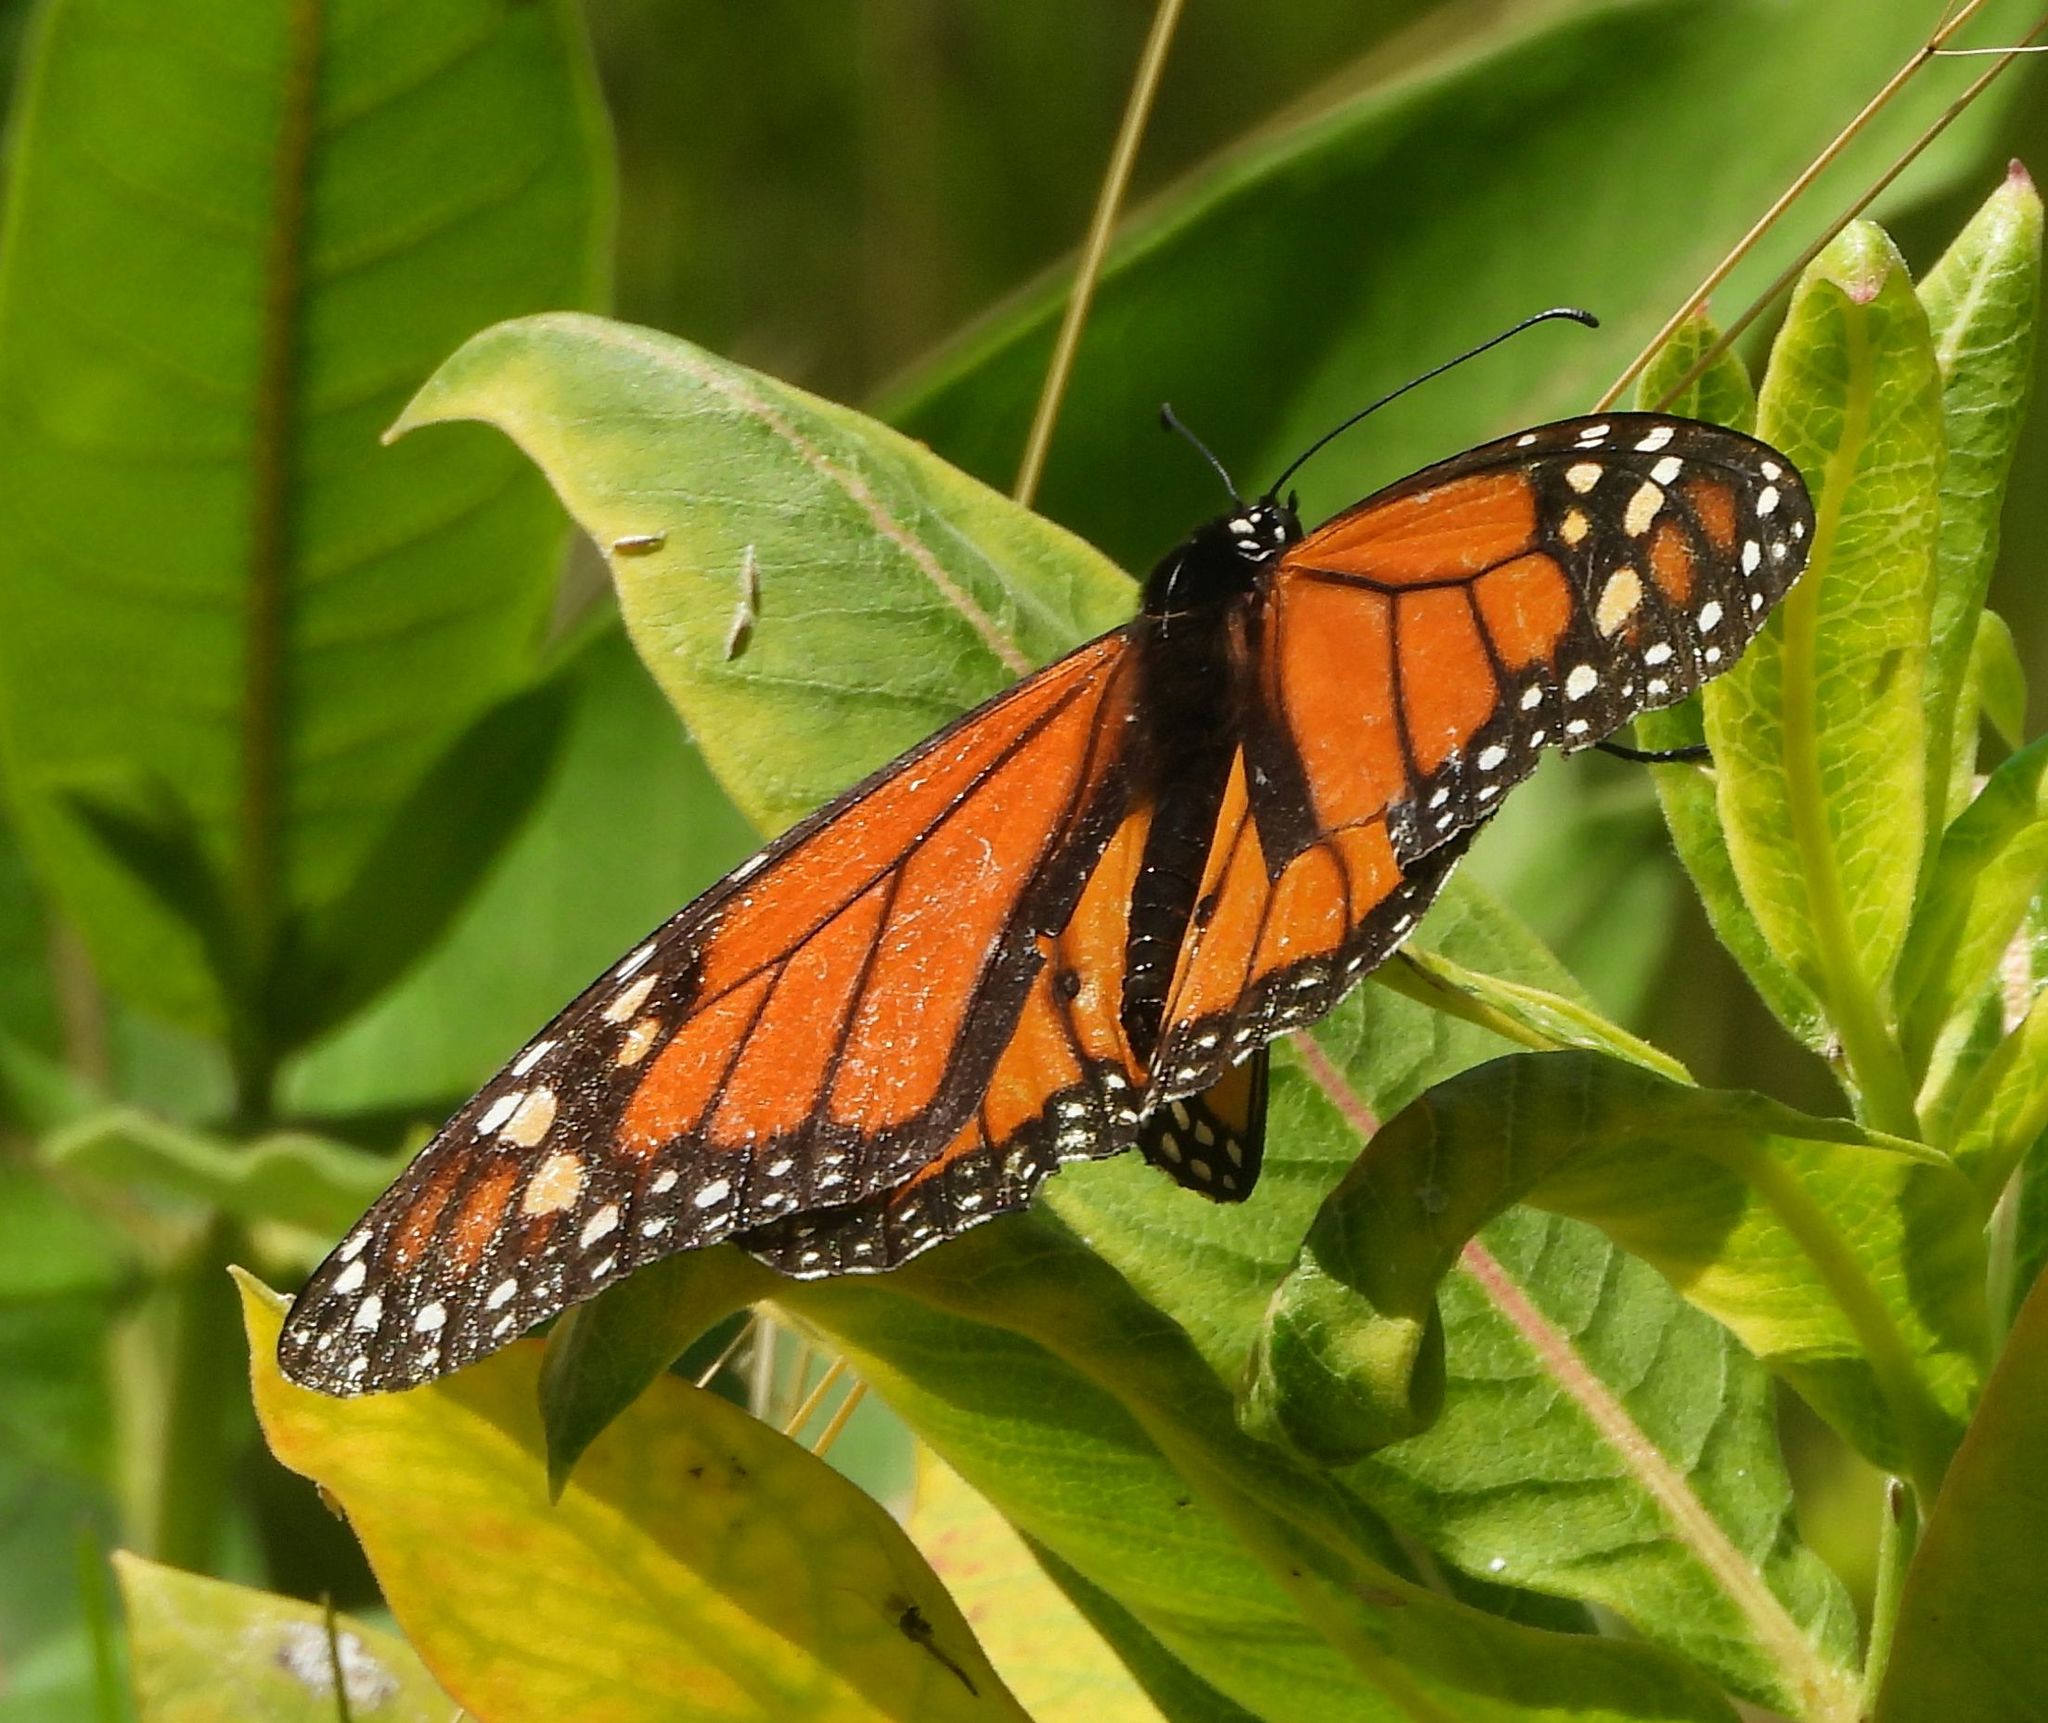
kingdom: Animalia
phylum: Arthropoda
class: Insecta
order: Lepidoptera
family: Nymphalidae
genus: Danaus
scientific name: Danaus plexippus
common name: Monarch
